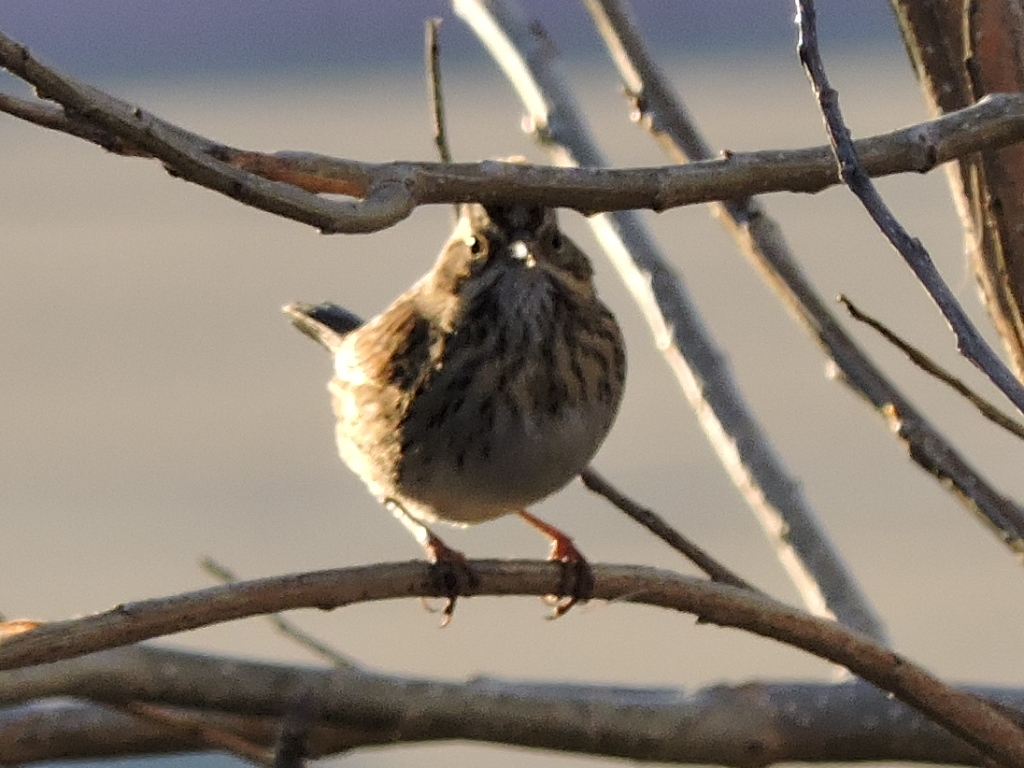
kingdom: Animalia
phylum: Chordata
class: Aves
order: Passeriformes
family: Passerellidae
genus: Melospiza
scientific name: Melospiza lincolnii
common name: Lincoln's sparrow
